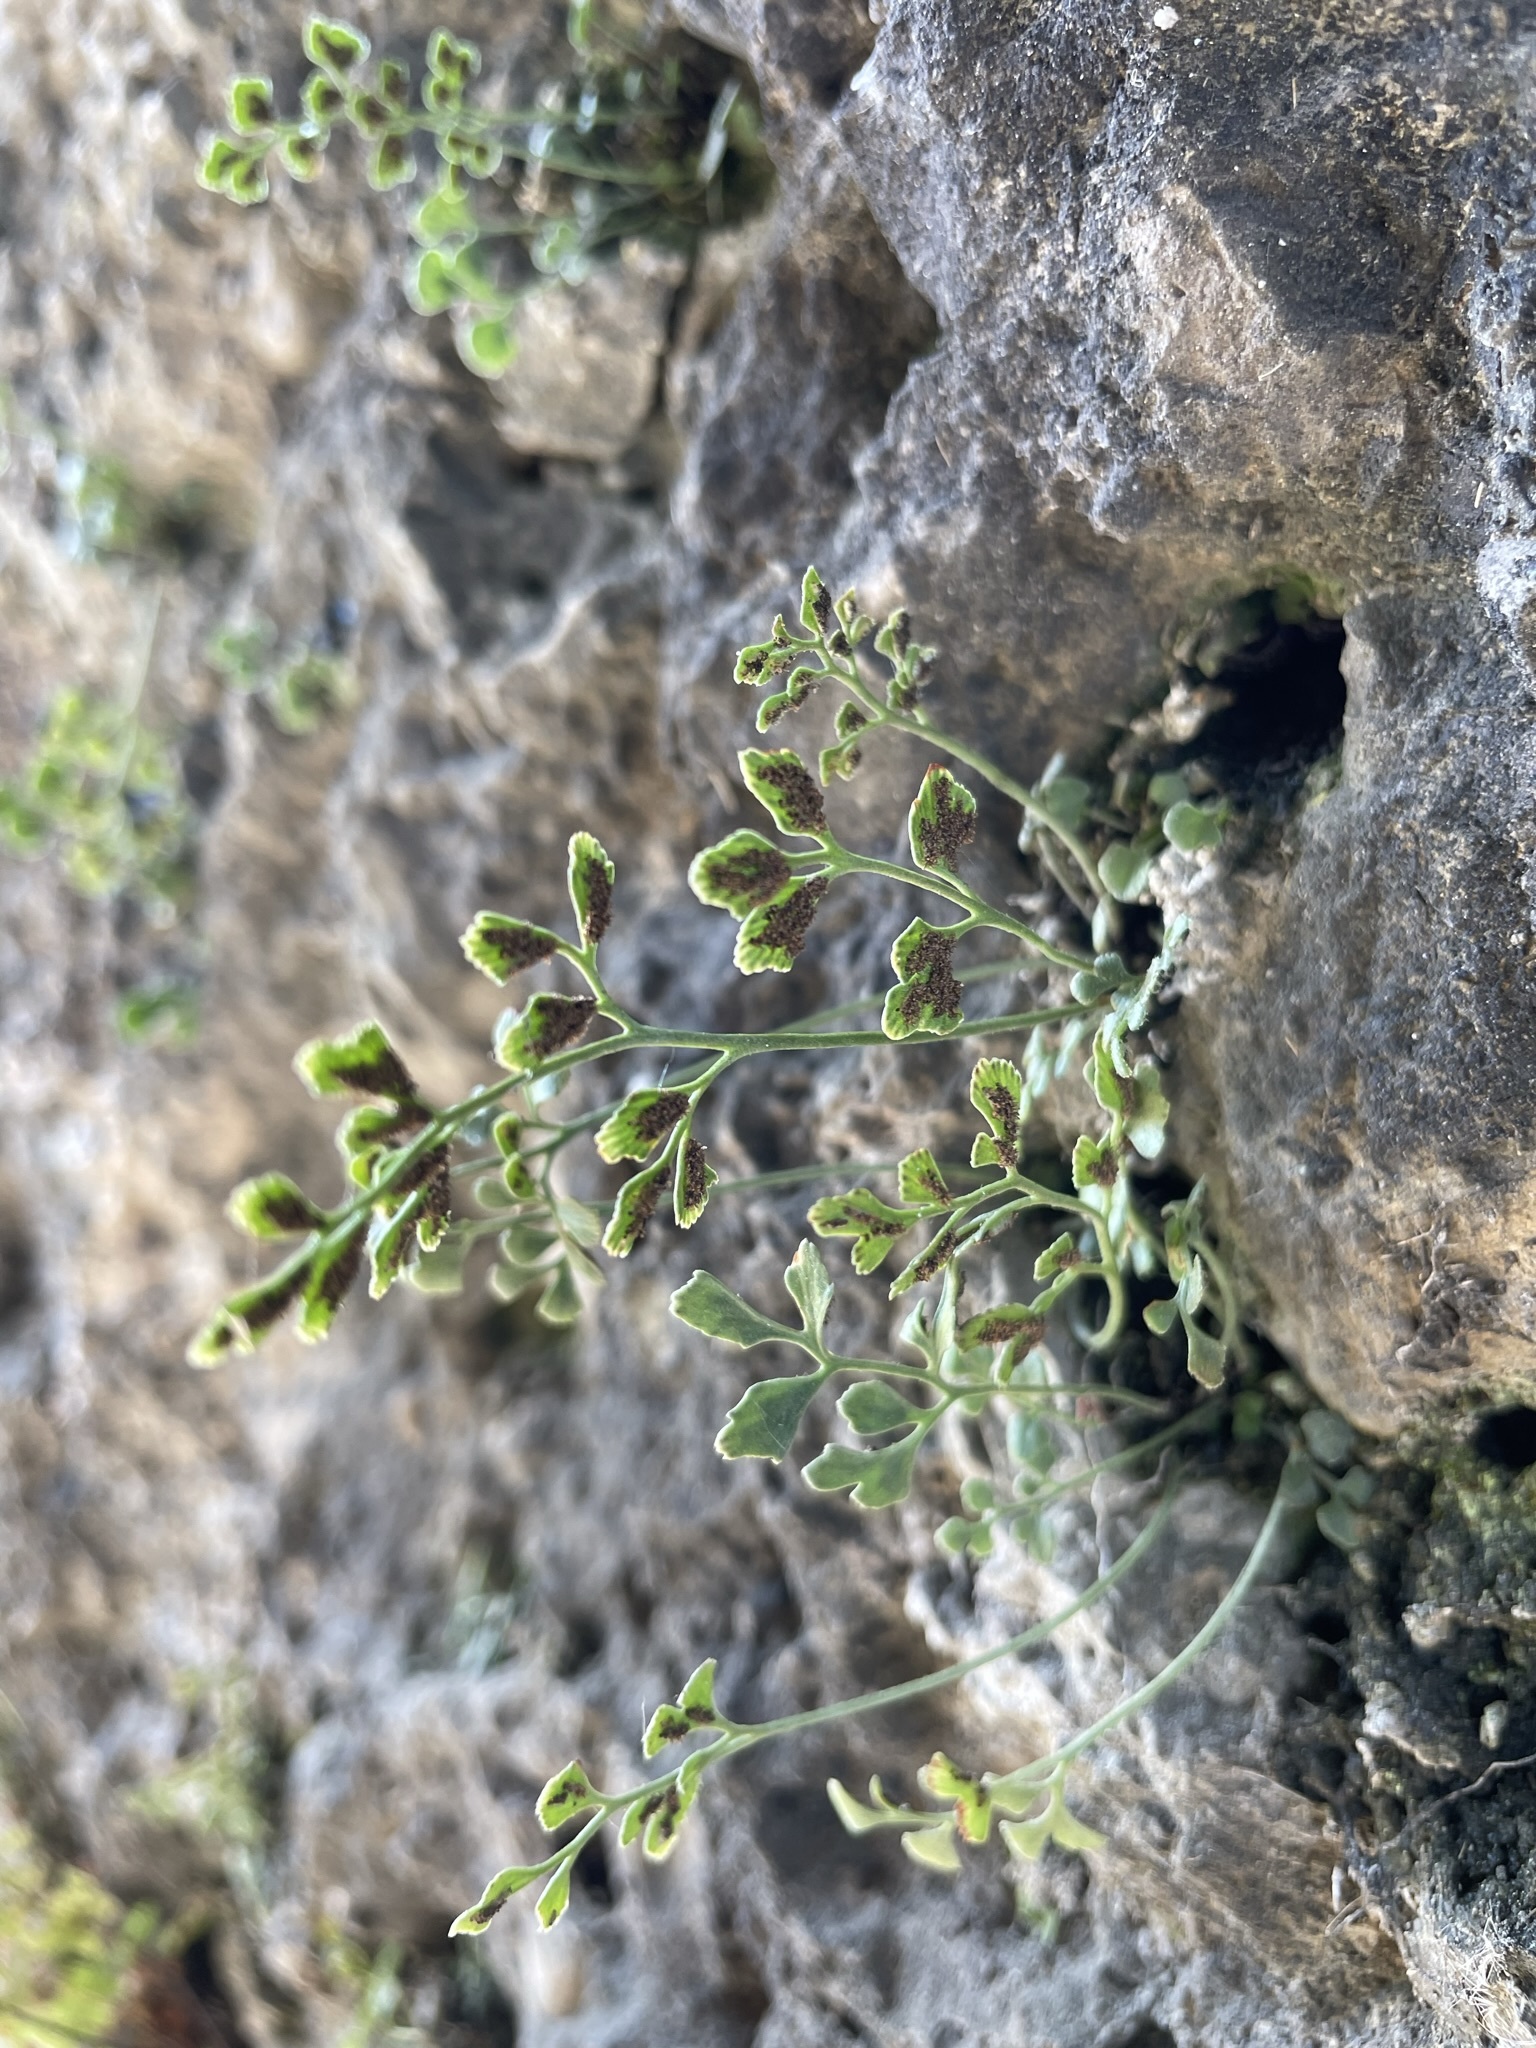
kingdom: Plantae
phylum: Tracheophyta
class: Polypodiopsida
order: Polypodiales
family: Aspleniaceae
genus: Asplenium
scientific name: Asplenium ruta-muraria
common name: Wall-rue
